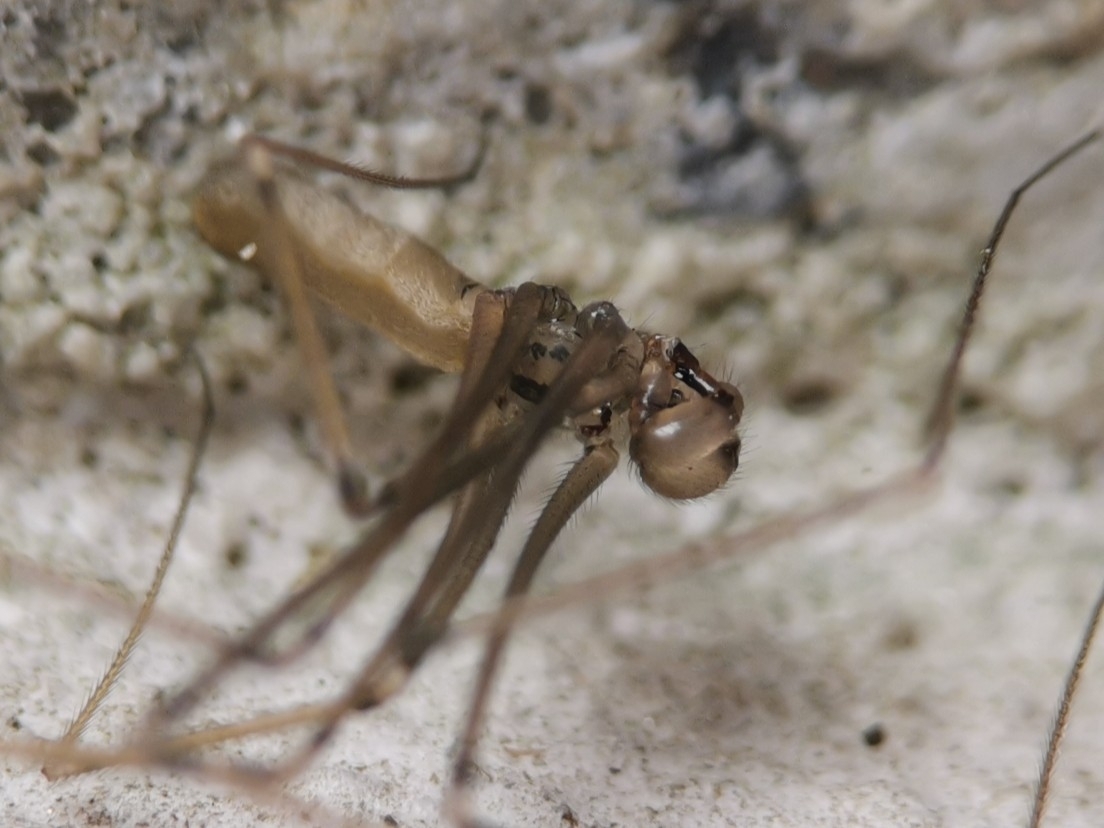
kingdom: Animalia
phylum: Arthropoda
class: Arachnida
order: Araneae
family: Pholcidae
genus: Pholcus
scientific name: Pholcus opilionoides
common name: Daddylongleg spider
